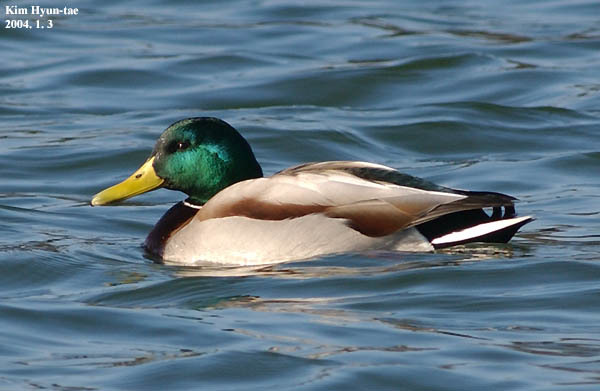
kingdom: Animalia
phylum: Chordata
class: Aves
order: Anseriformes
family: Anatidae
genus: Anas
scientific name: Anas platyrhynchos
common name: Mallard
